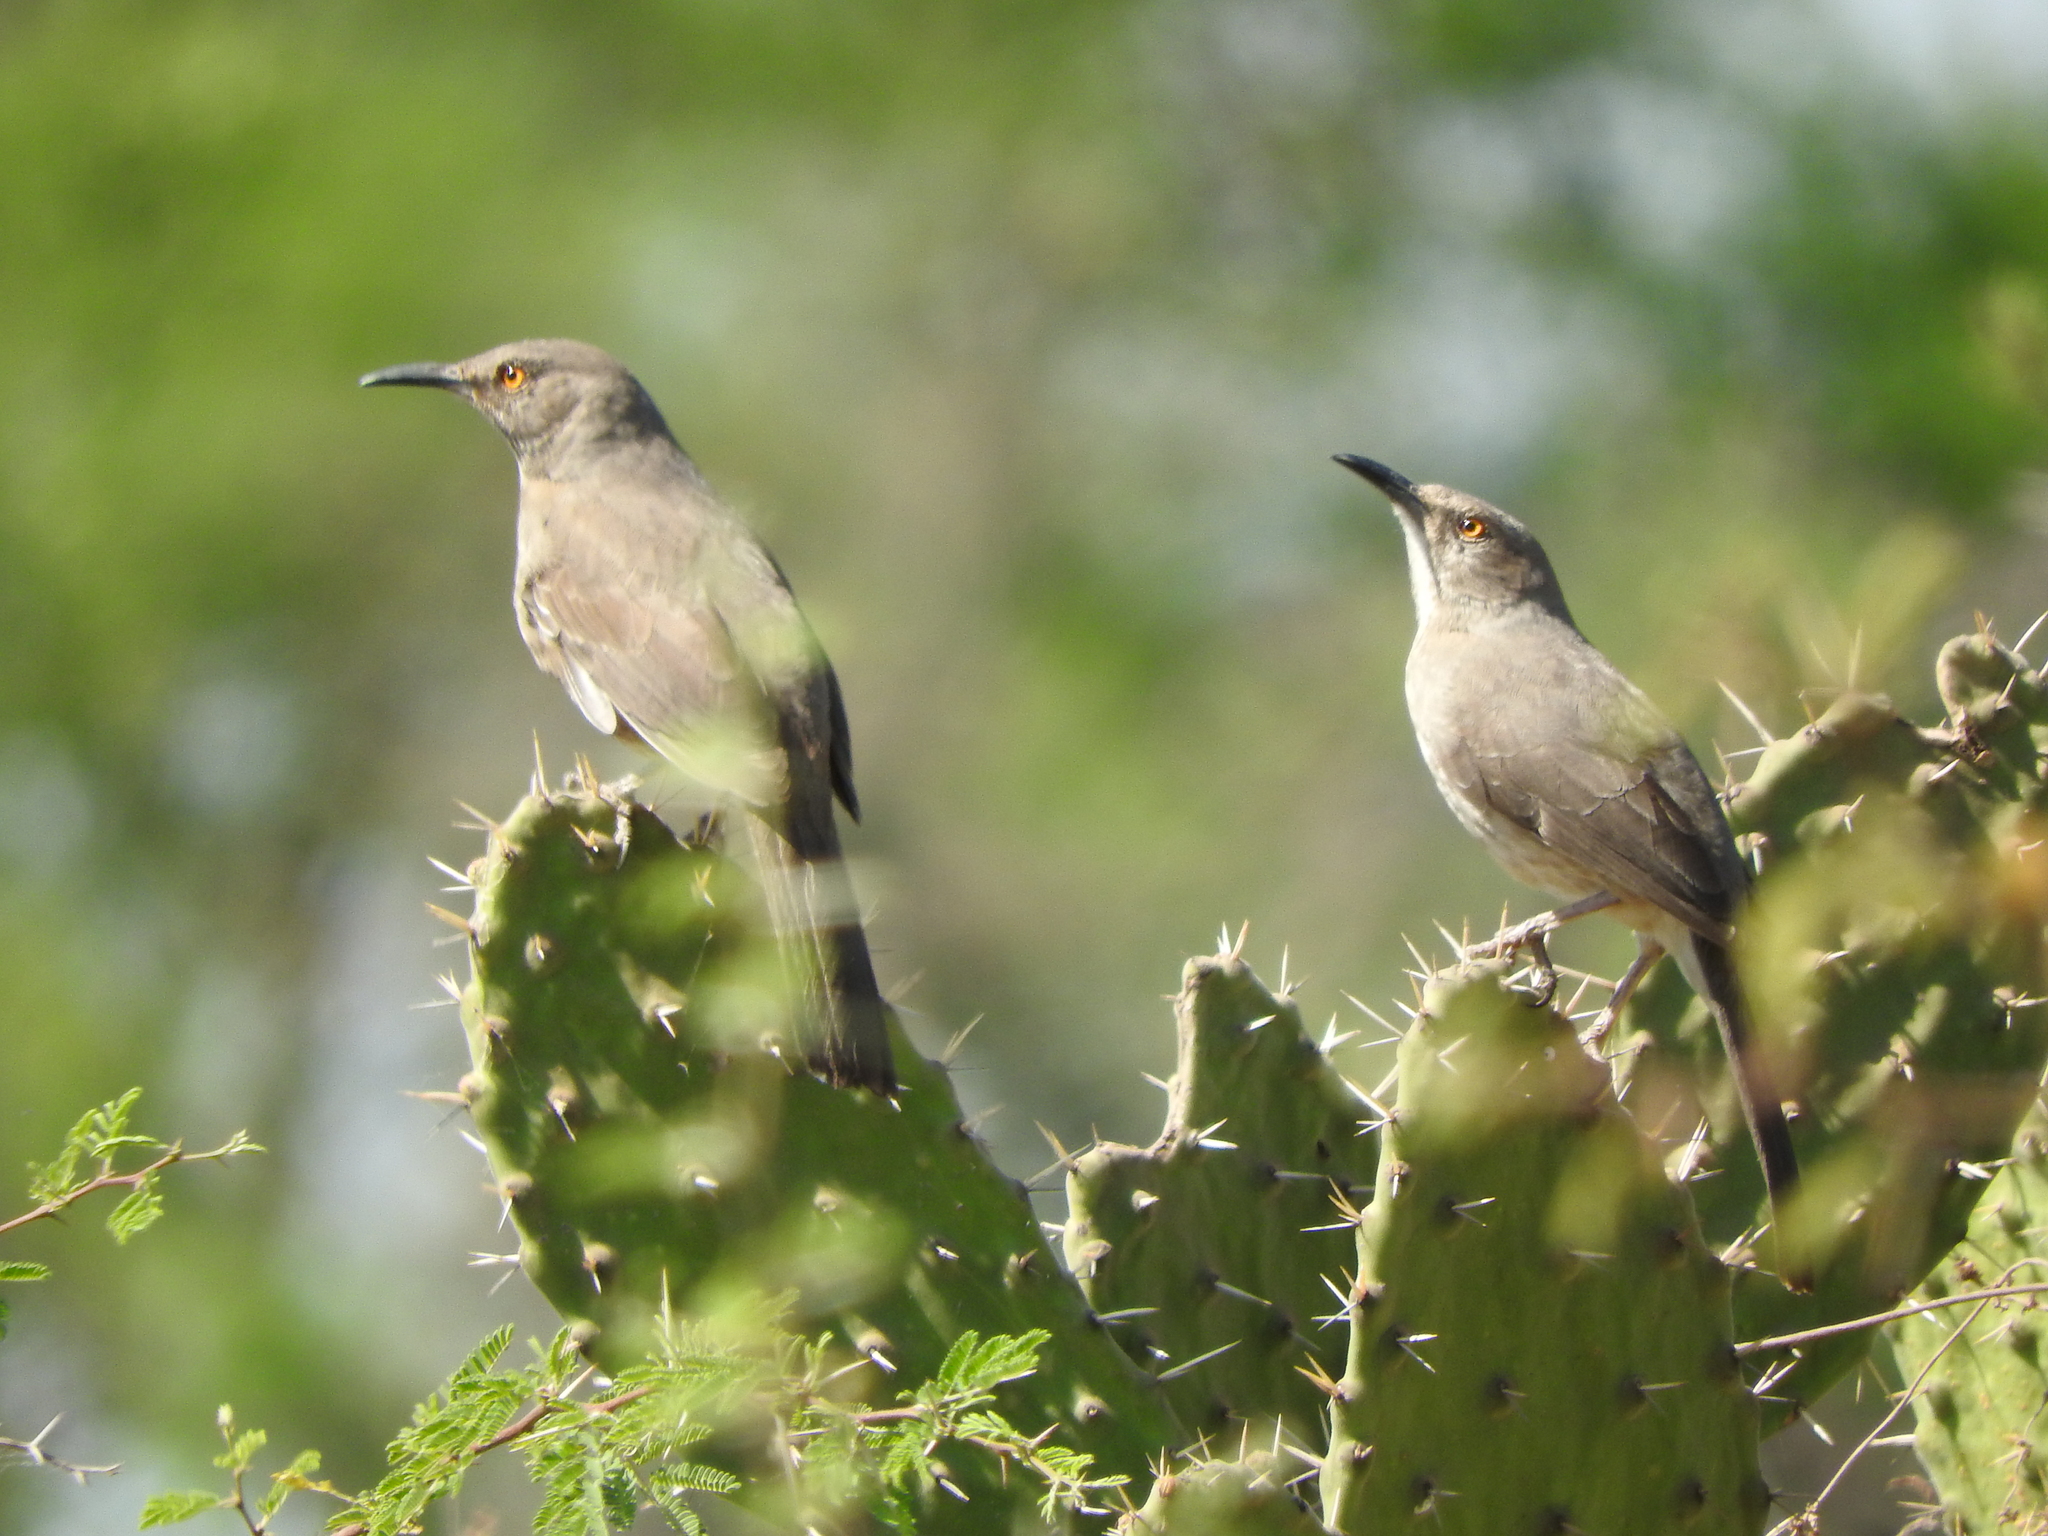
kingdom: Animalia
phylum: Chordata
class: Aves
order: Passeriformes
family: Mimidae
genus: Toxostoma
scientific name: Toxostoma curvirostre
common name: Curve-billed thrasher
